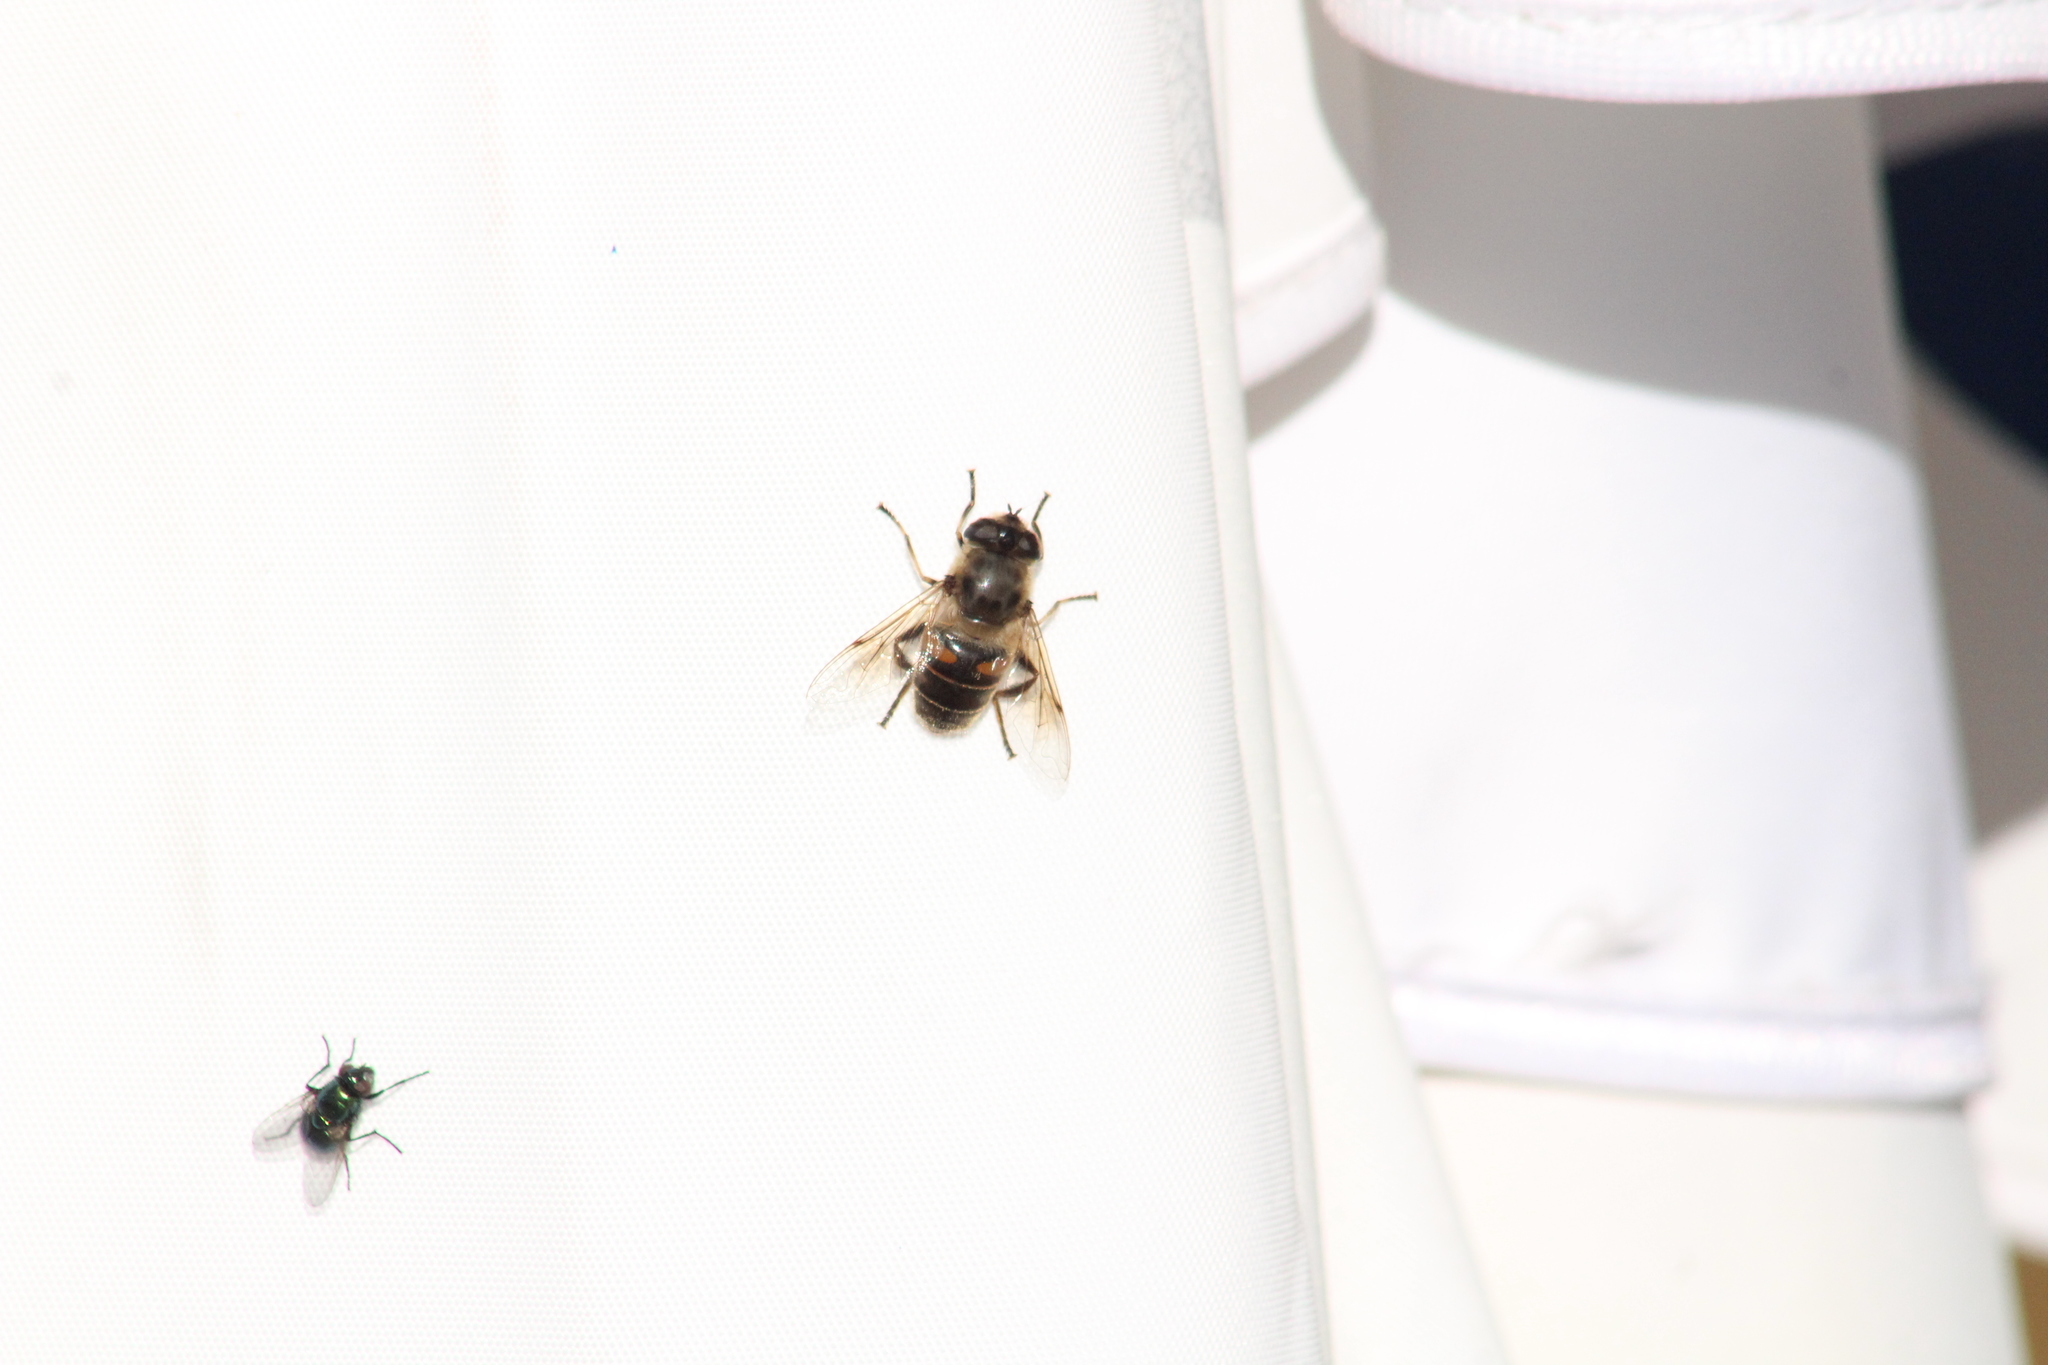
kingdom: Animalia
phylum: Arthropoda
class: Insecta
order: Diptera
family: Syrphidae
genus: Eristalis
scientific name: Eristalis tenax
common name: Drone fly
